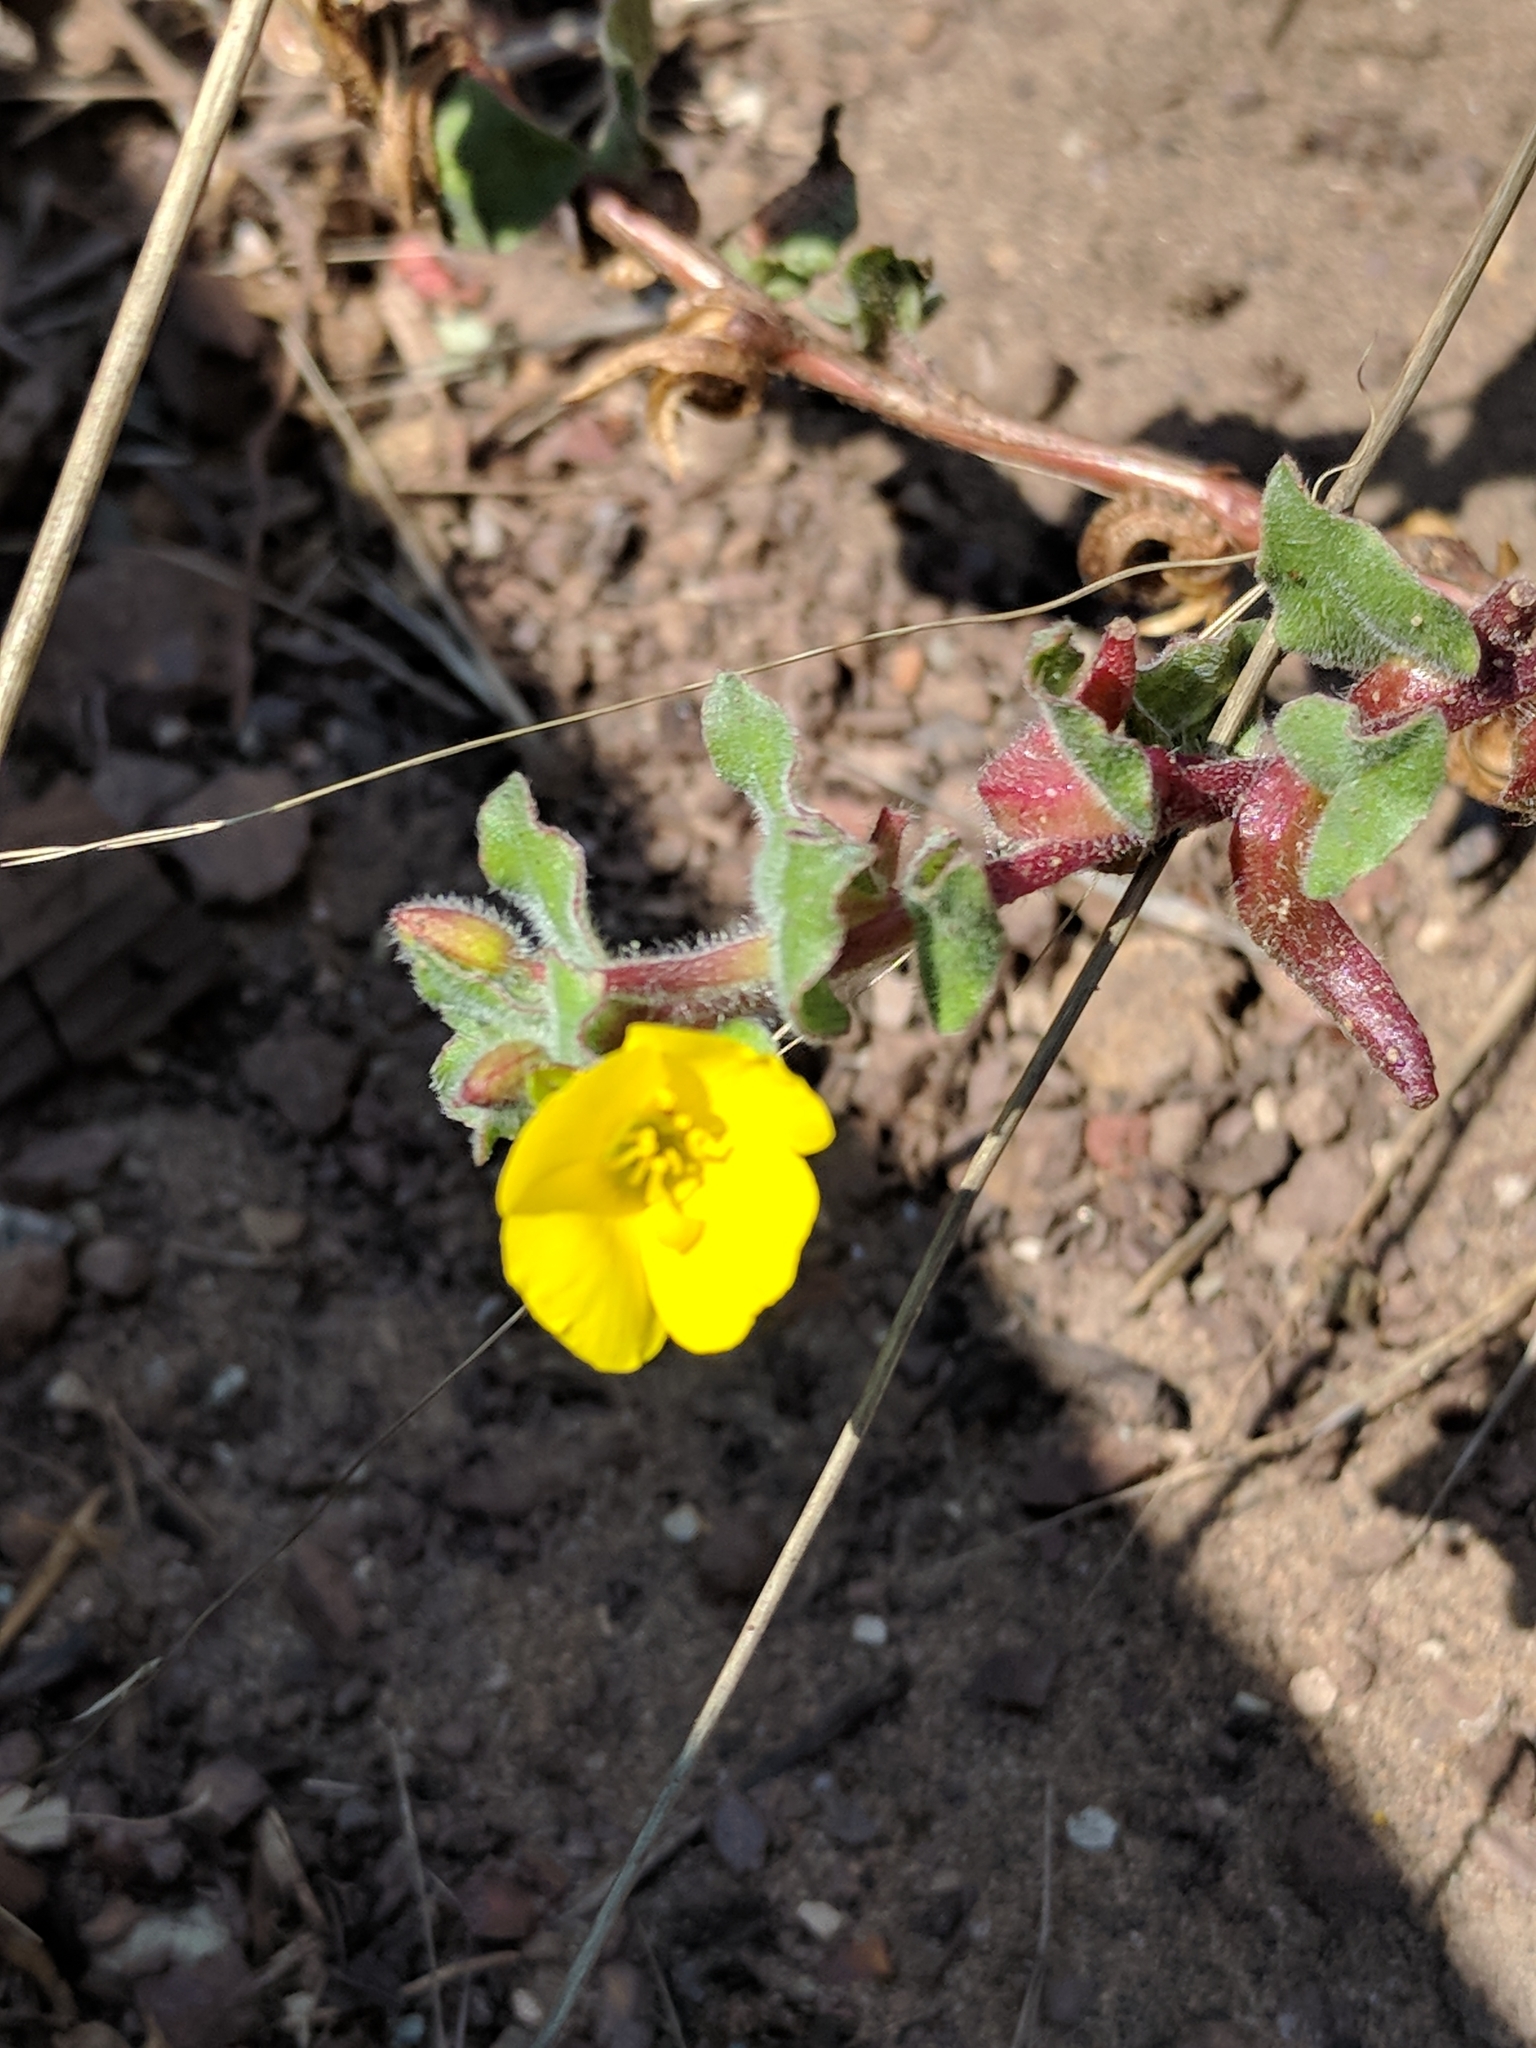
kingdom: Plantae
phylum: Tracheophyta
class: Magnoliopsida
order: Myrtales
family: Onagraceae
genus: Camissoniopsis
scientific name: Camissoniopsis cheiranthifolia
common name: Beach suncup
